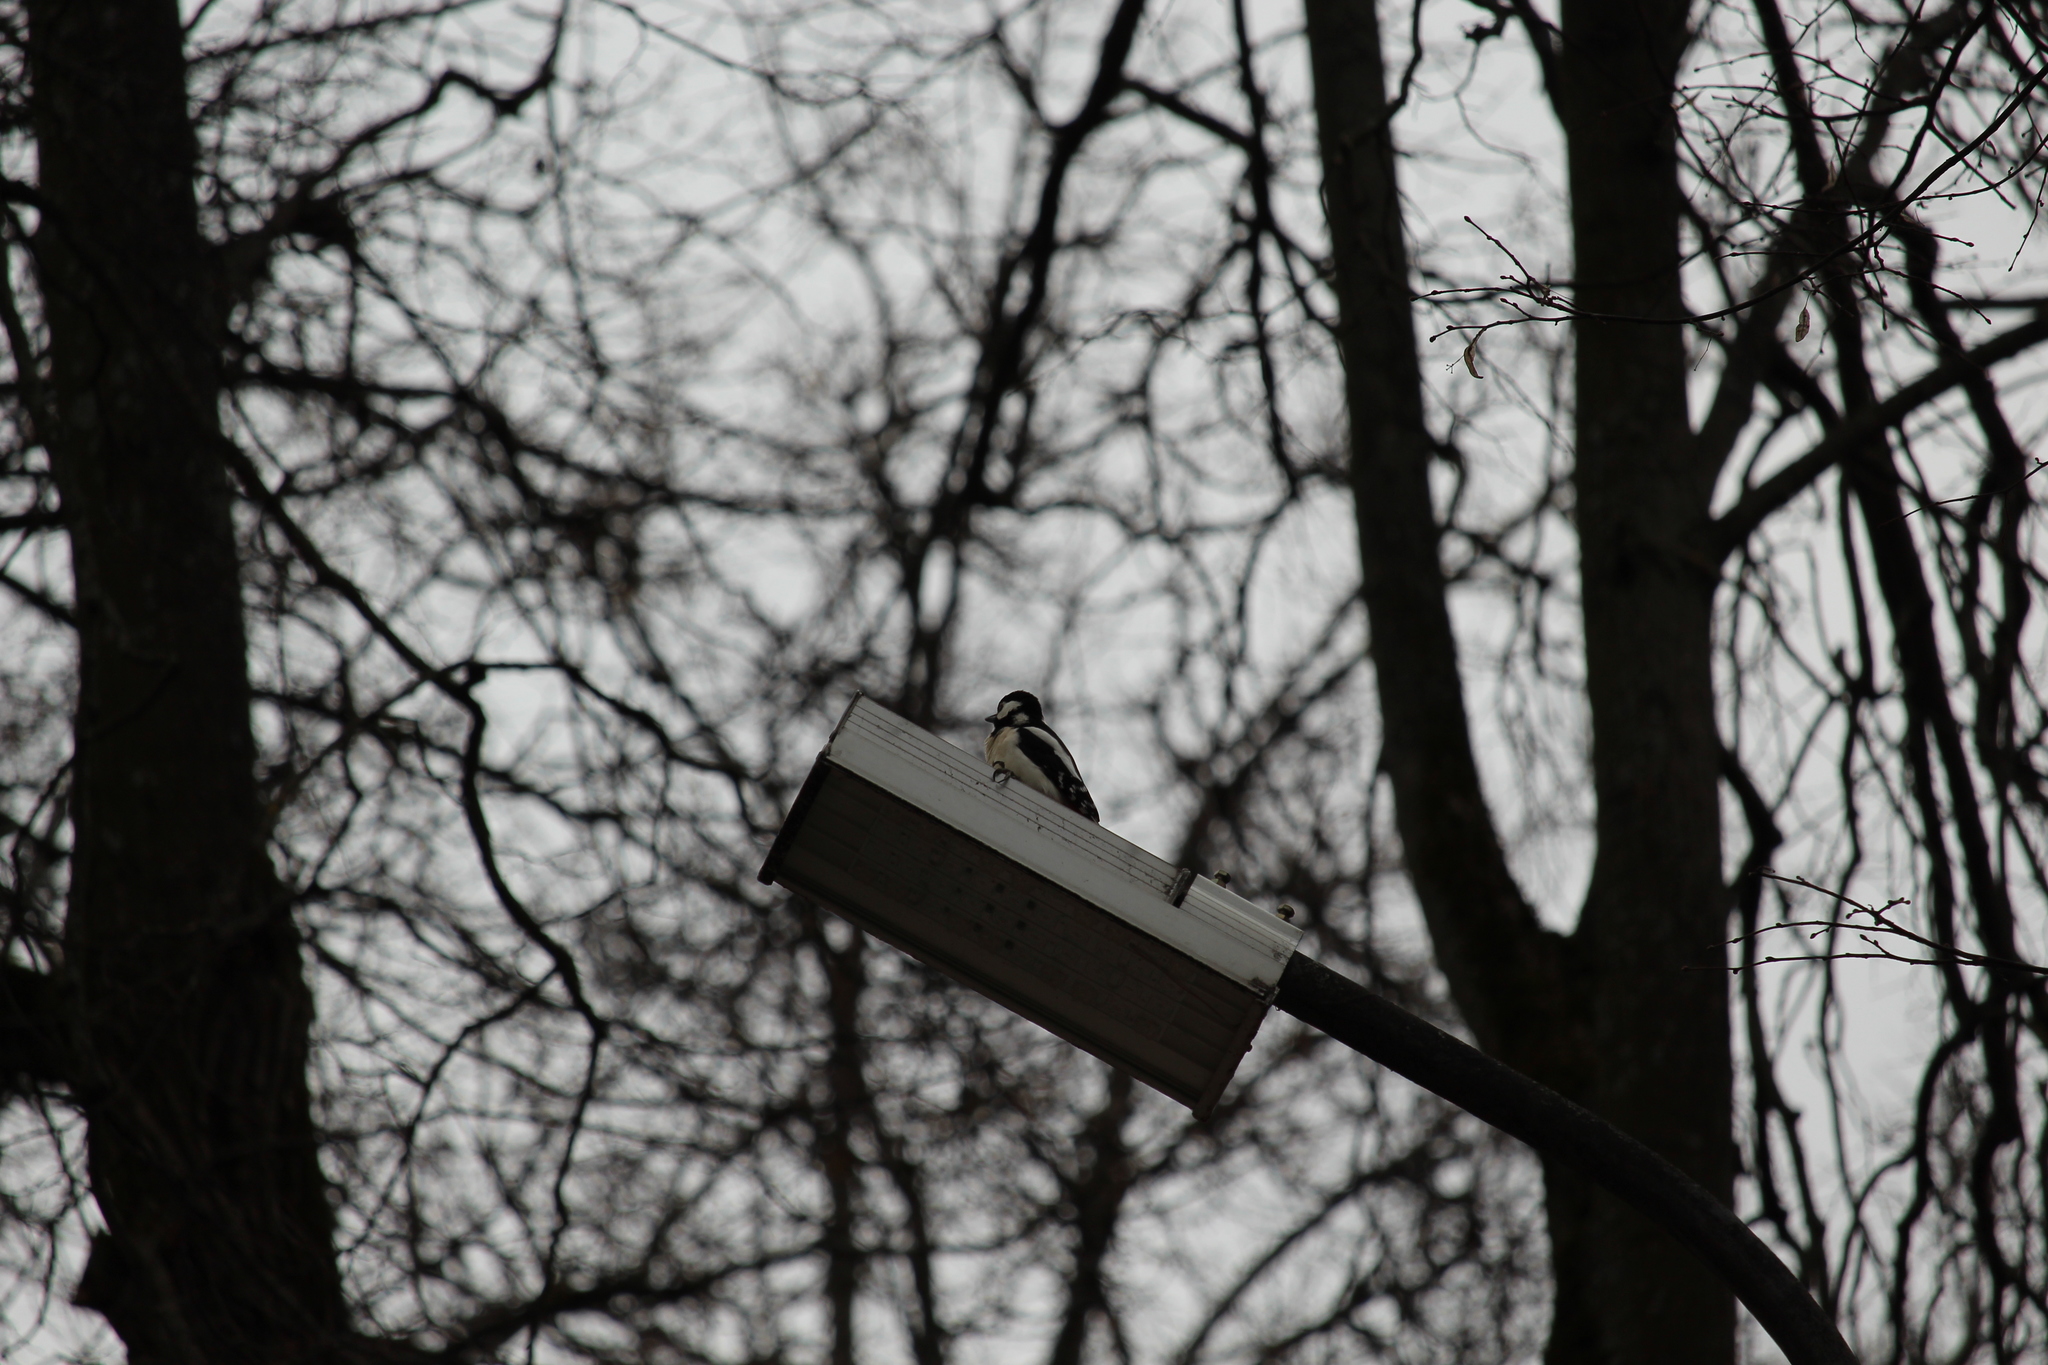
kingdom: Animalia
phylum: Chordata
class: Aves
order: Piciformes
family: Picidae
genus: Dendrocopos
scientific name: Dendrocopos major
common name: Great spotted woodpecker
